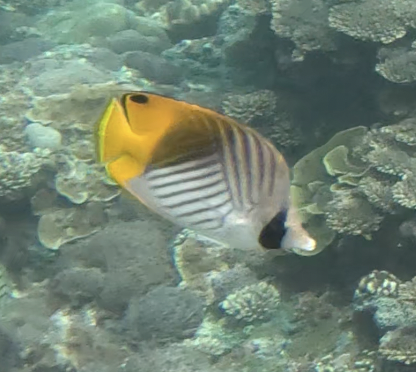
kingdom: Animalia
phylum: Chordata
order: Perciformes
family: Chaetodontidae
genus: Chaetodon
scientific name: Chaetodon auriga
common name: Threadfin butterflyfish
